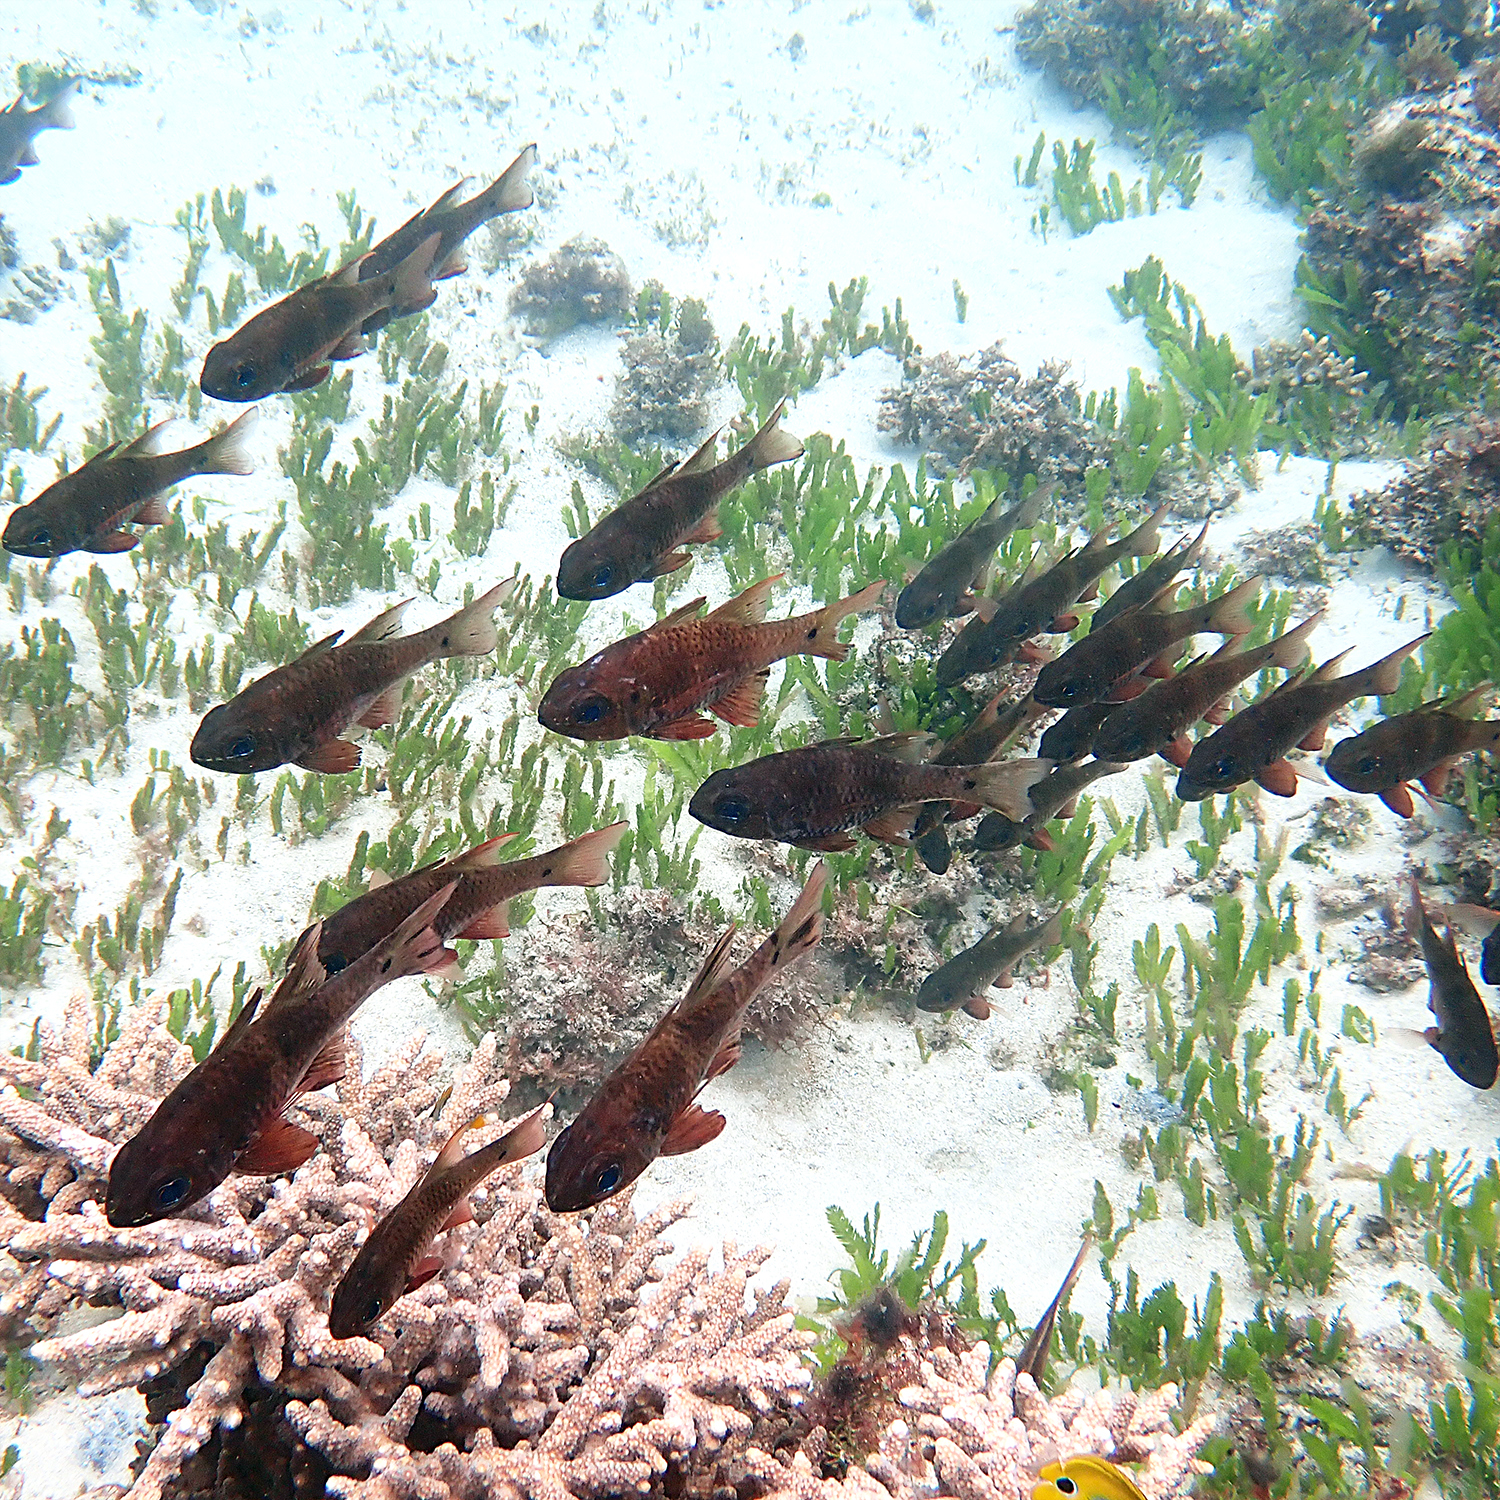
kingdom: Animalia
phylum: Chordata
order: Perciformes
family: Apogonidae
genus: Ostorhinchus
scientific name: Ostorhinchus norfolcensis
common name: Norfolk cardinalfish
